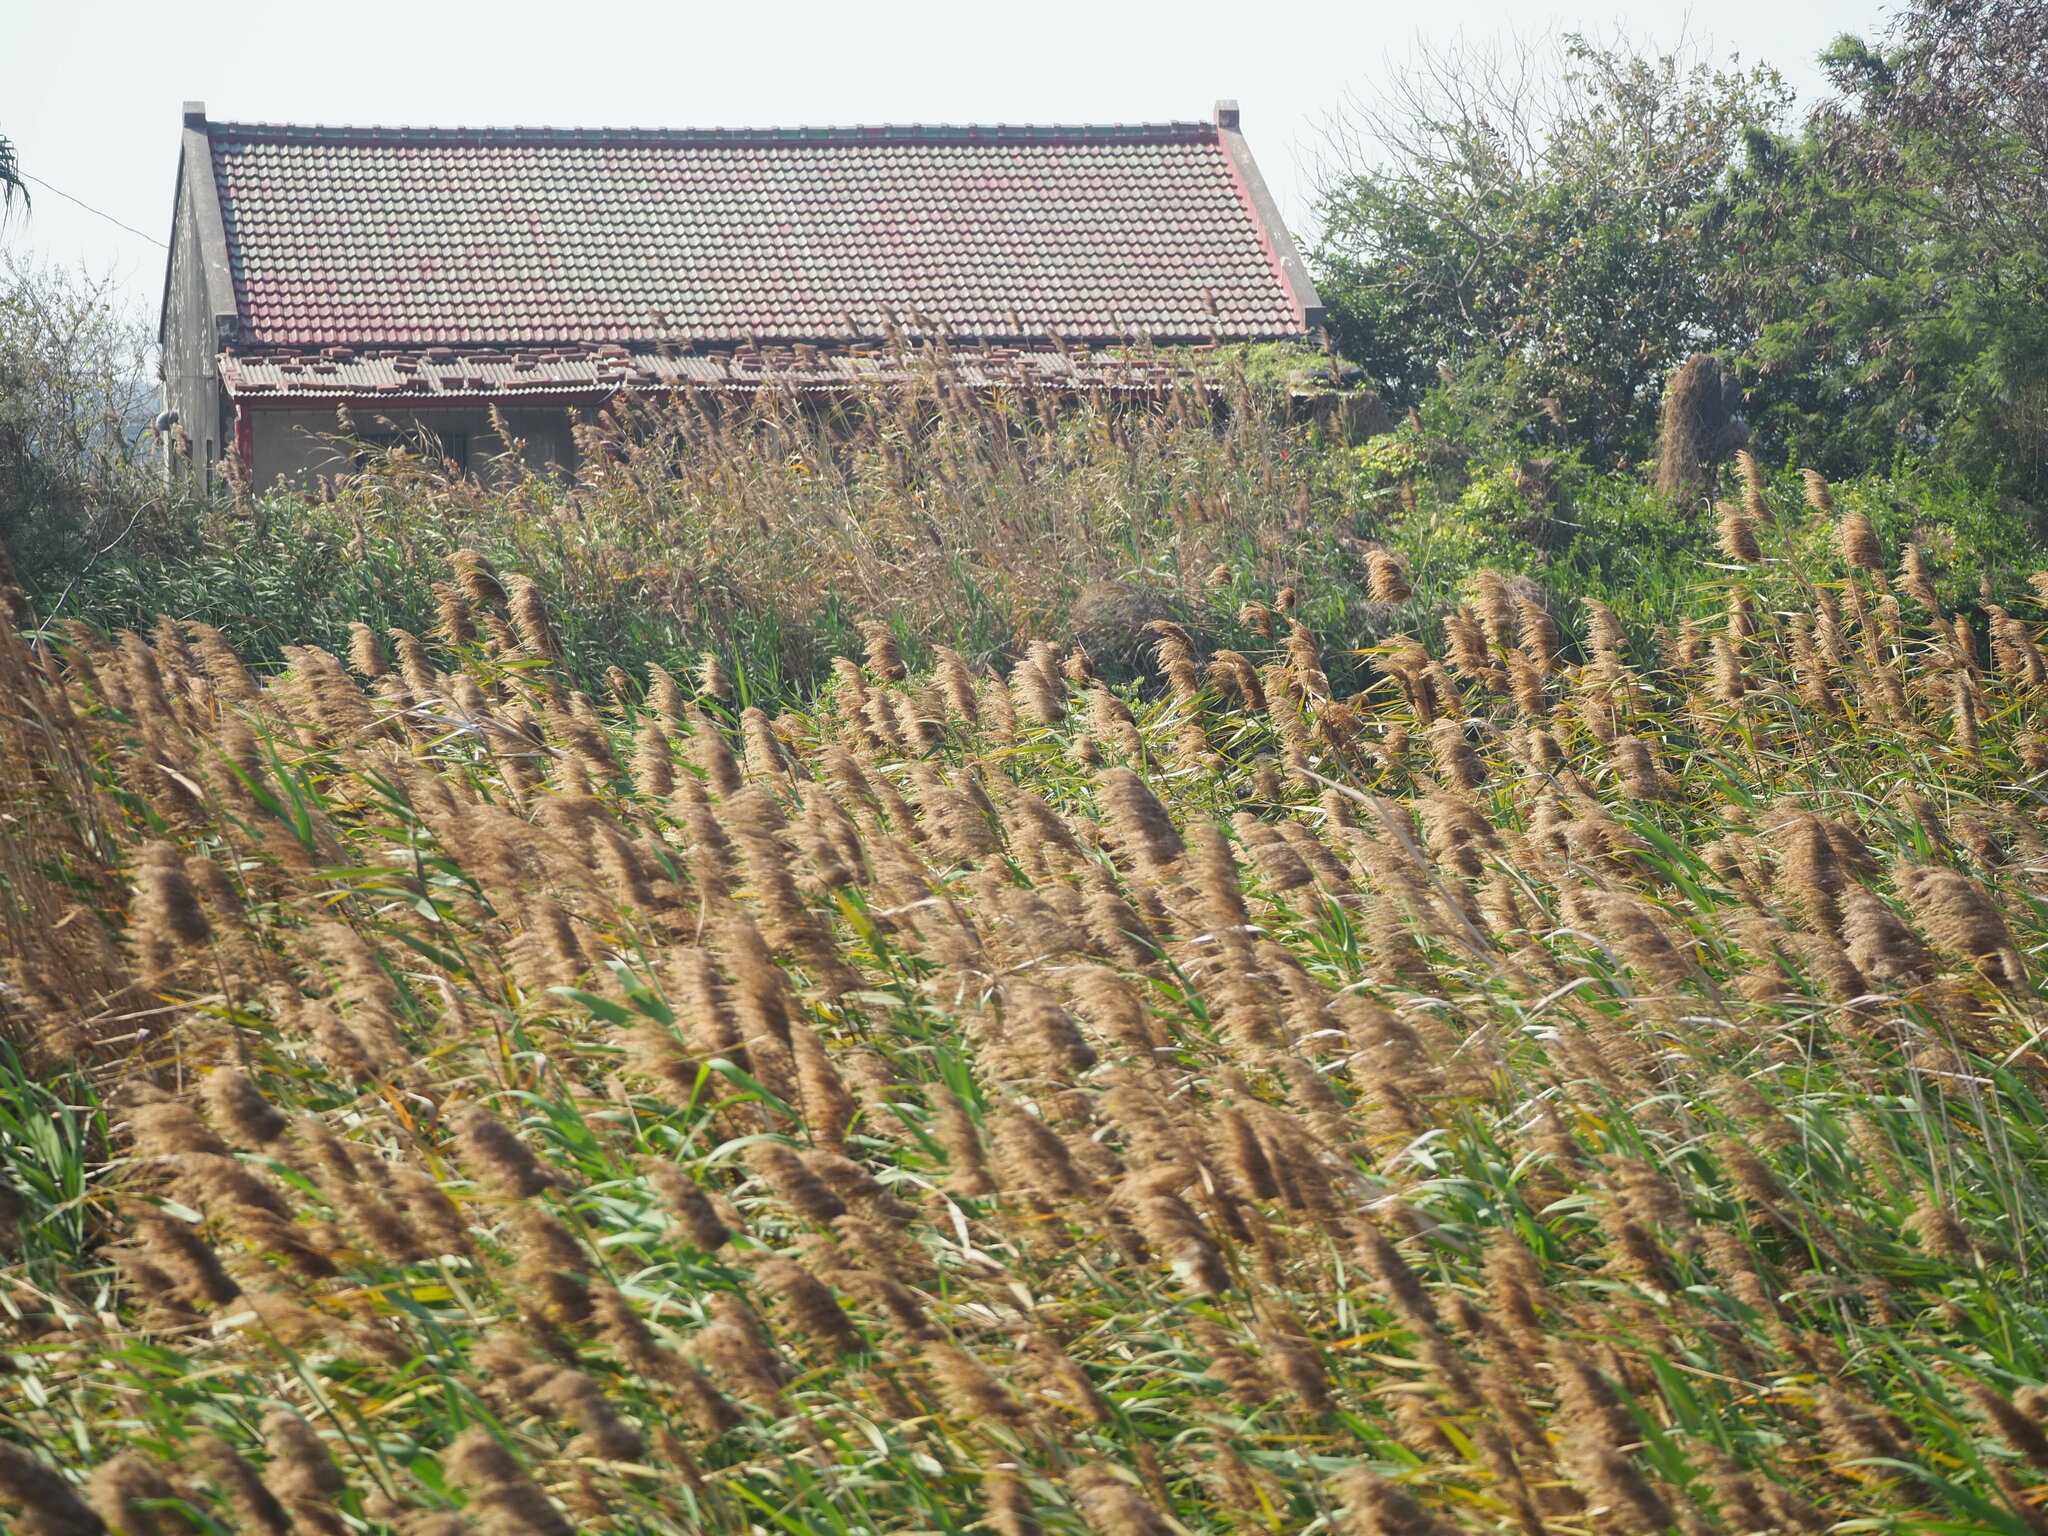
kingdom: Plantae
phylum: Tracheophyta
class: Liliopsida
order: Poales
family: Poaceae
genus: Phragmites
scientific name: Phragmites australis
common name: Common reed
